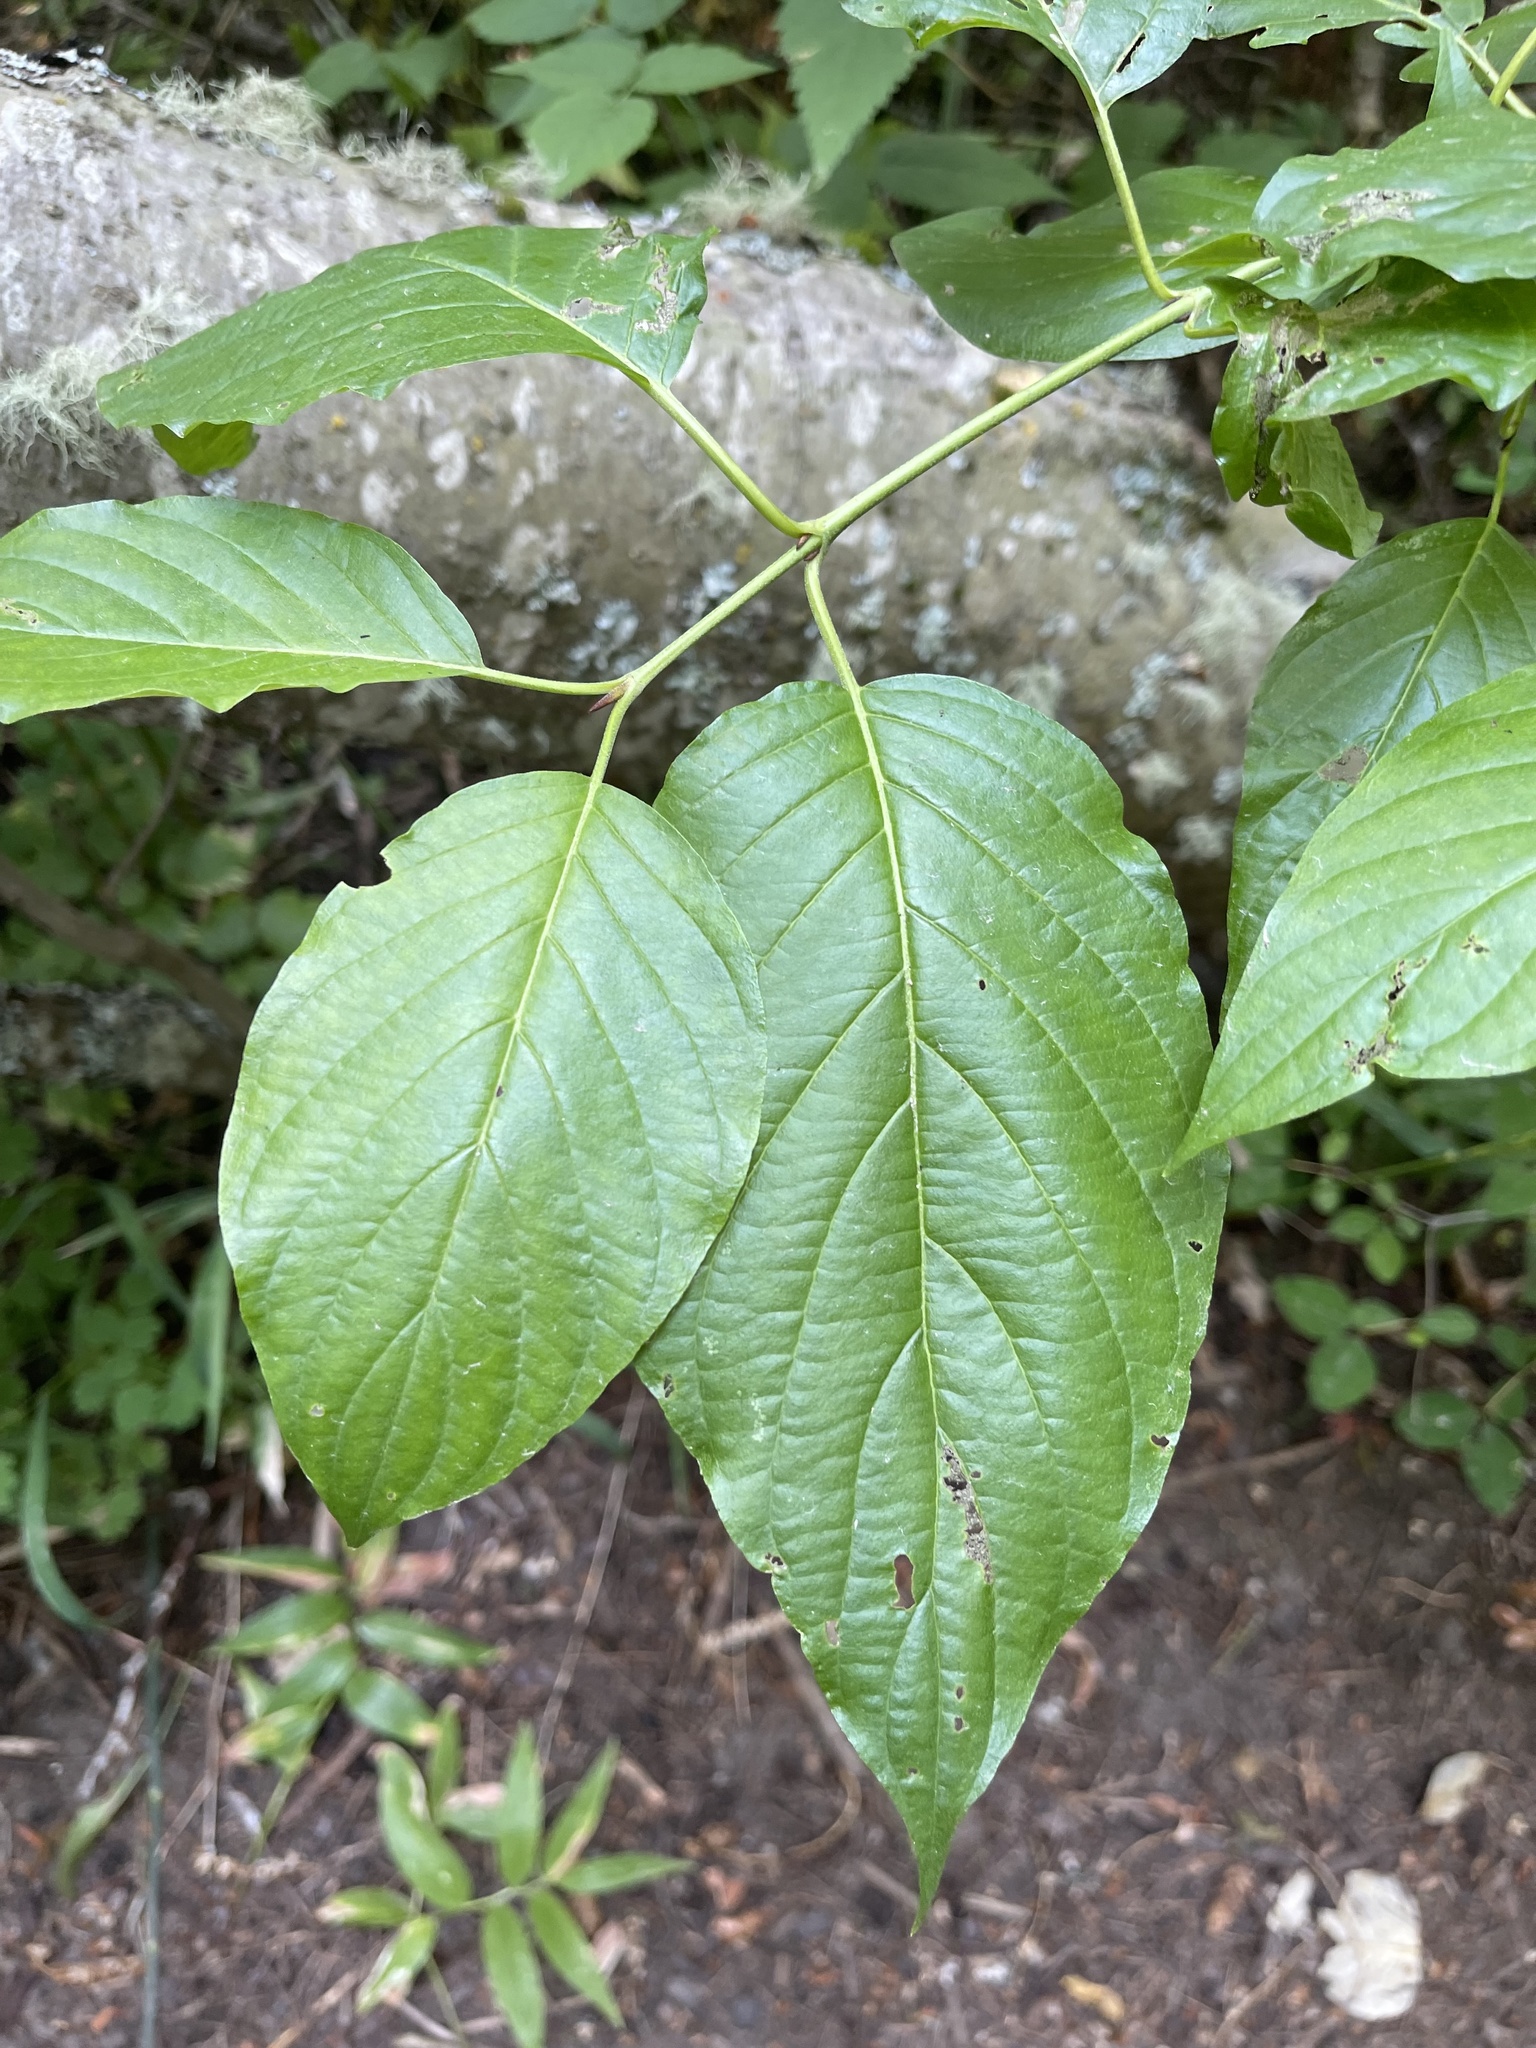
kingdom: Plantae
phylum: Tracheophyta
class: Magnoliopsida
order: Cornales
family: Cornaceae
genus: Cornus
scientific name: Cornus sericea
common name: Red-osier dogwood
